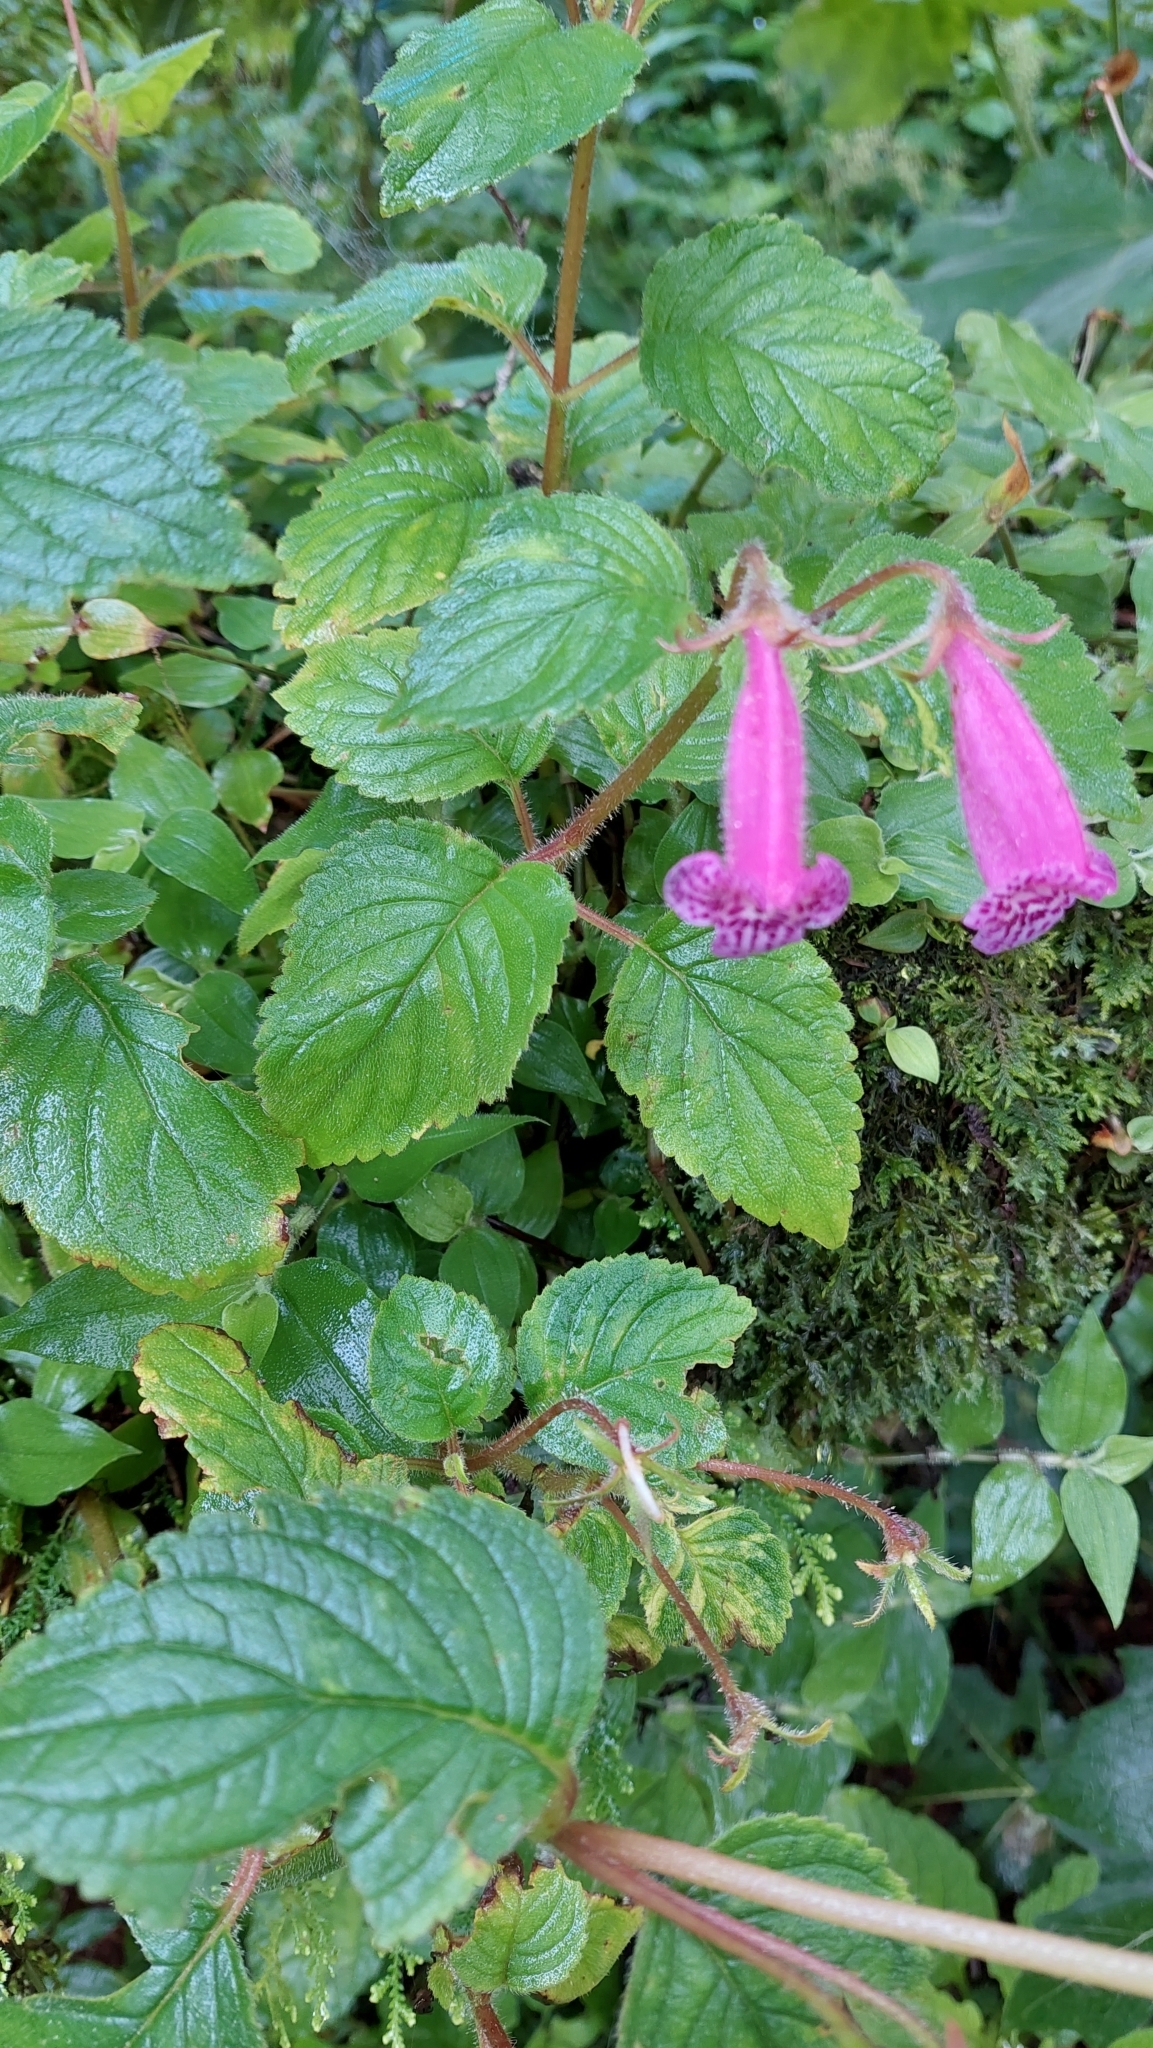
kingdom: Plantae
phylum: Tracheophyta
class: Magnoliopsida
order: Lamiales
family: Gesneriaceae
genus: Seemannia
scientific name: Seemannia gymnostoma
